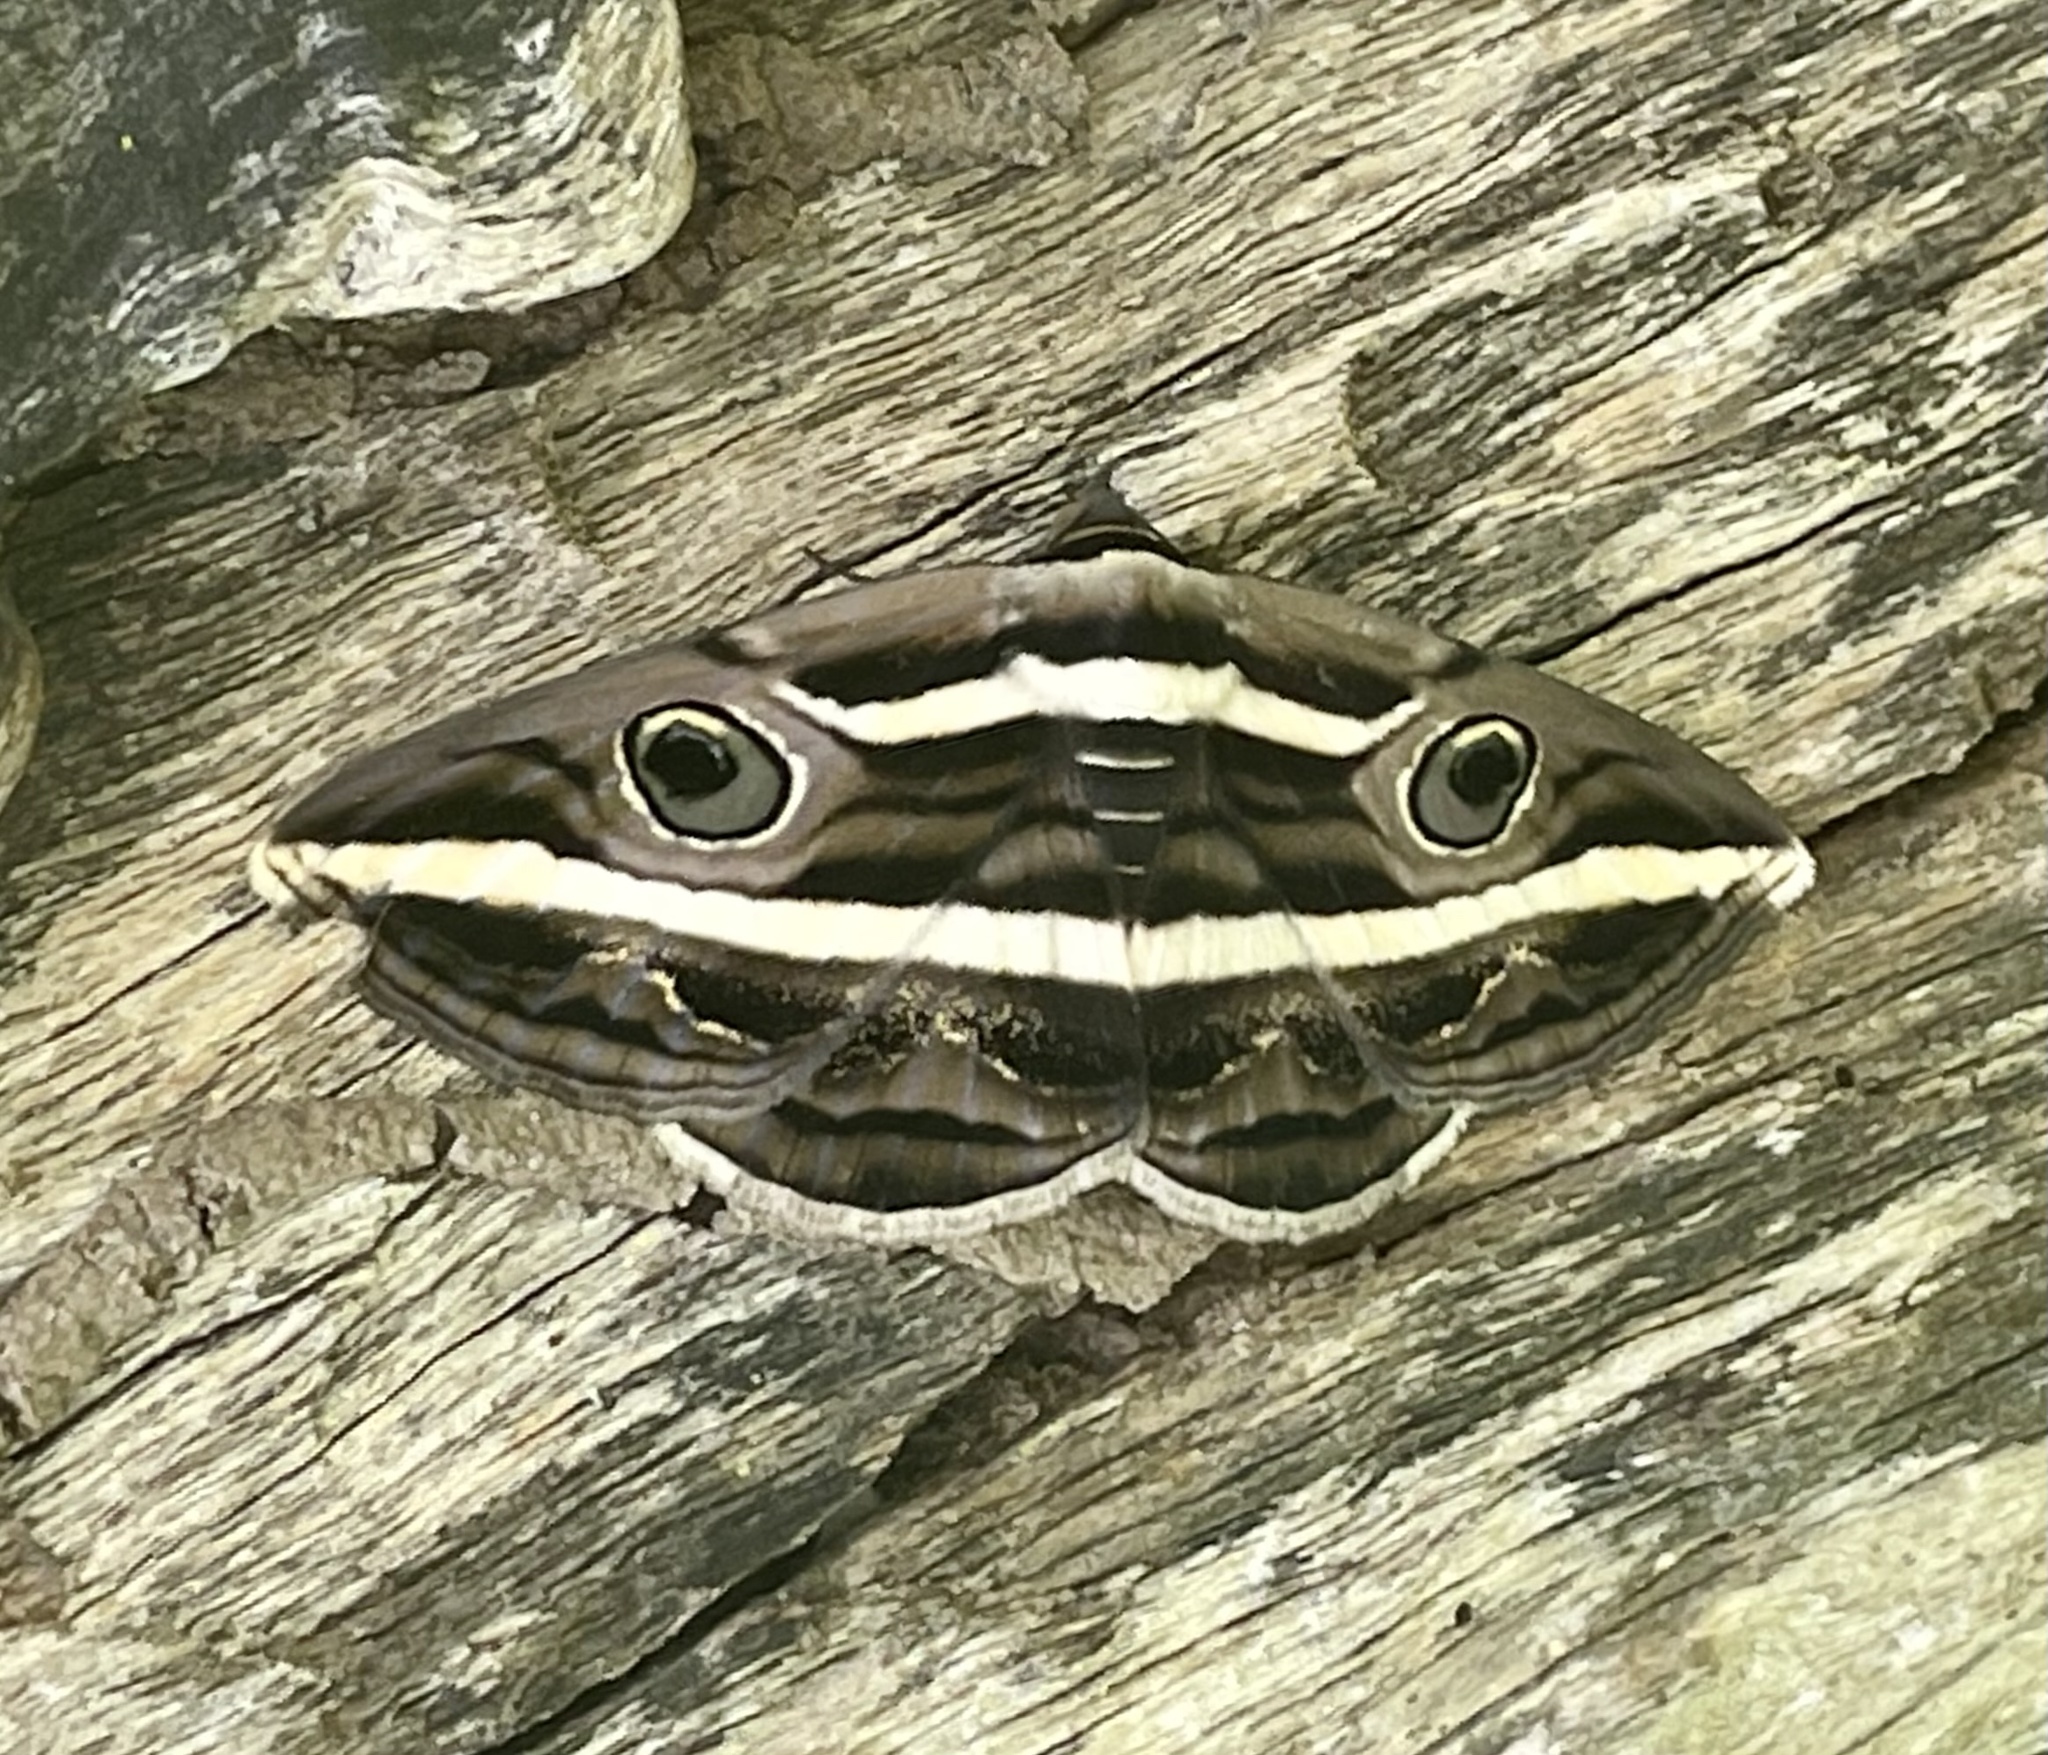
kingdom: Animalia
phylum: Arthropoda
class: Insecta
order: Lepidoptera
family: Erebidae
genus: Donuca
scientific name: Donuca rubropicta
